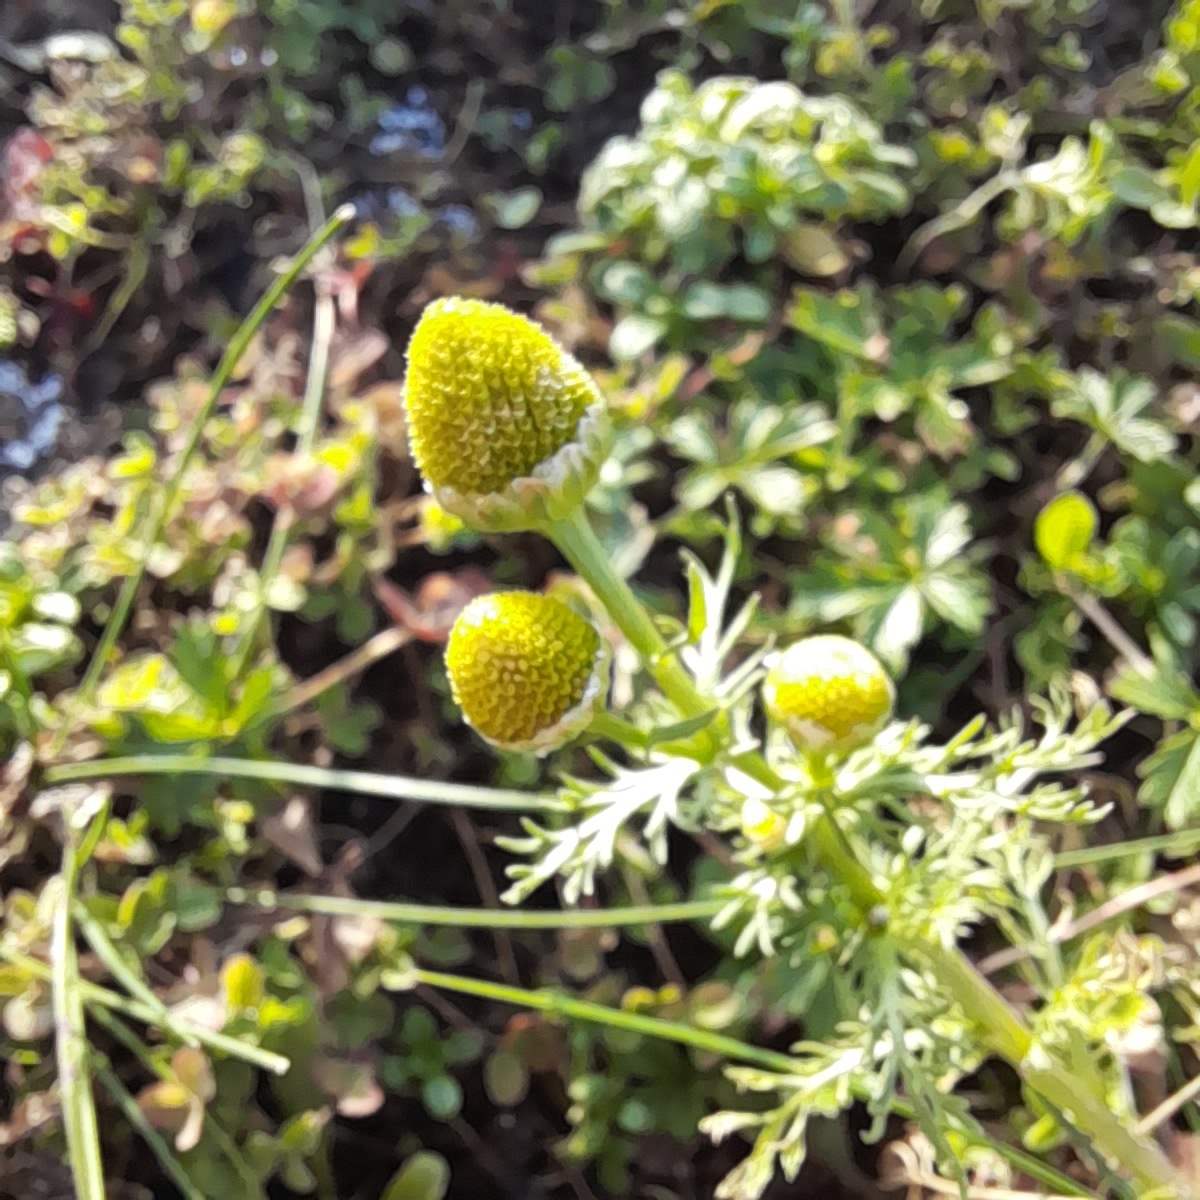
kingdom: Plantae
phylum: Tracheophyta
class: Magnoliopsida
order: Asterales
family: Asteraceae
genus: Matricaria
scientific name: Matricaria discoidea
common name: Disc mayweed
